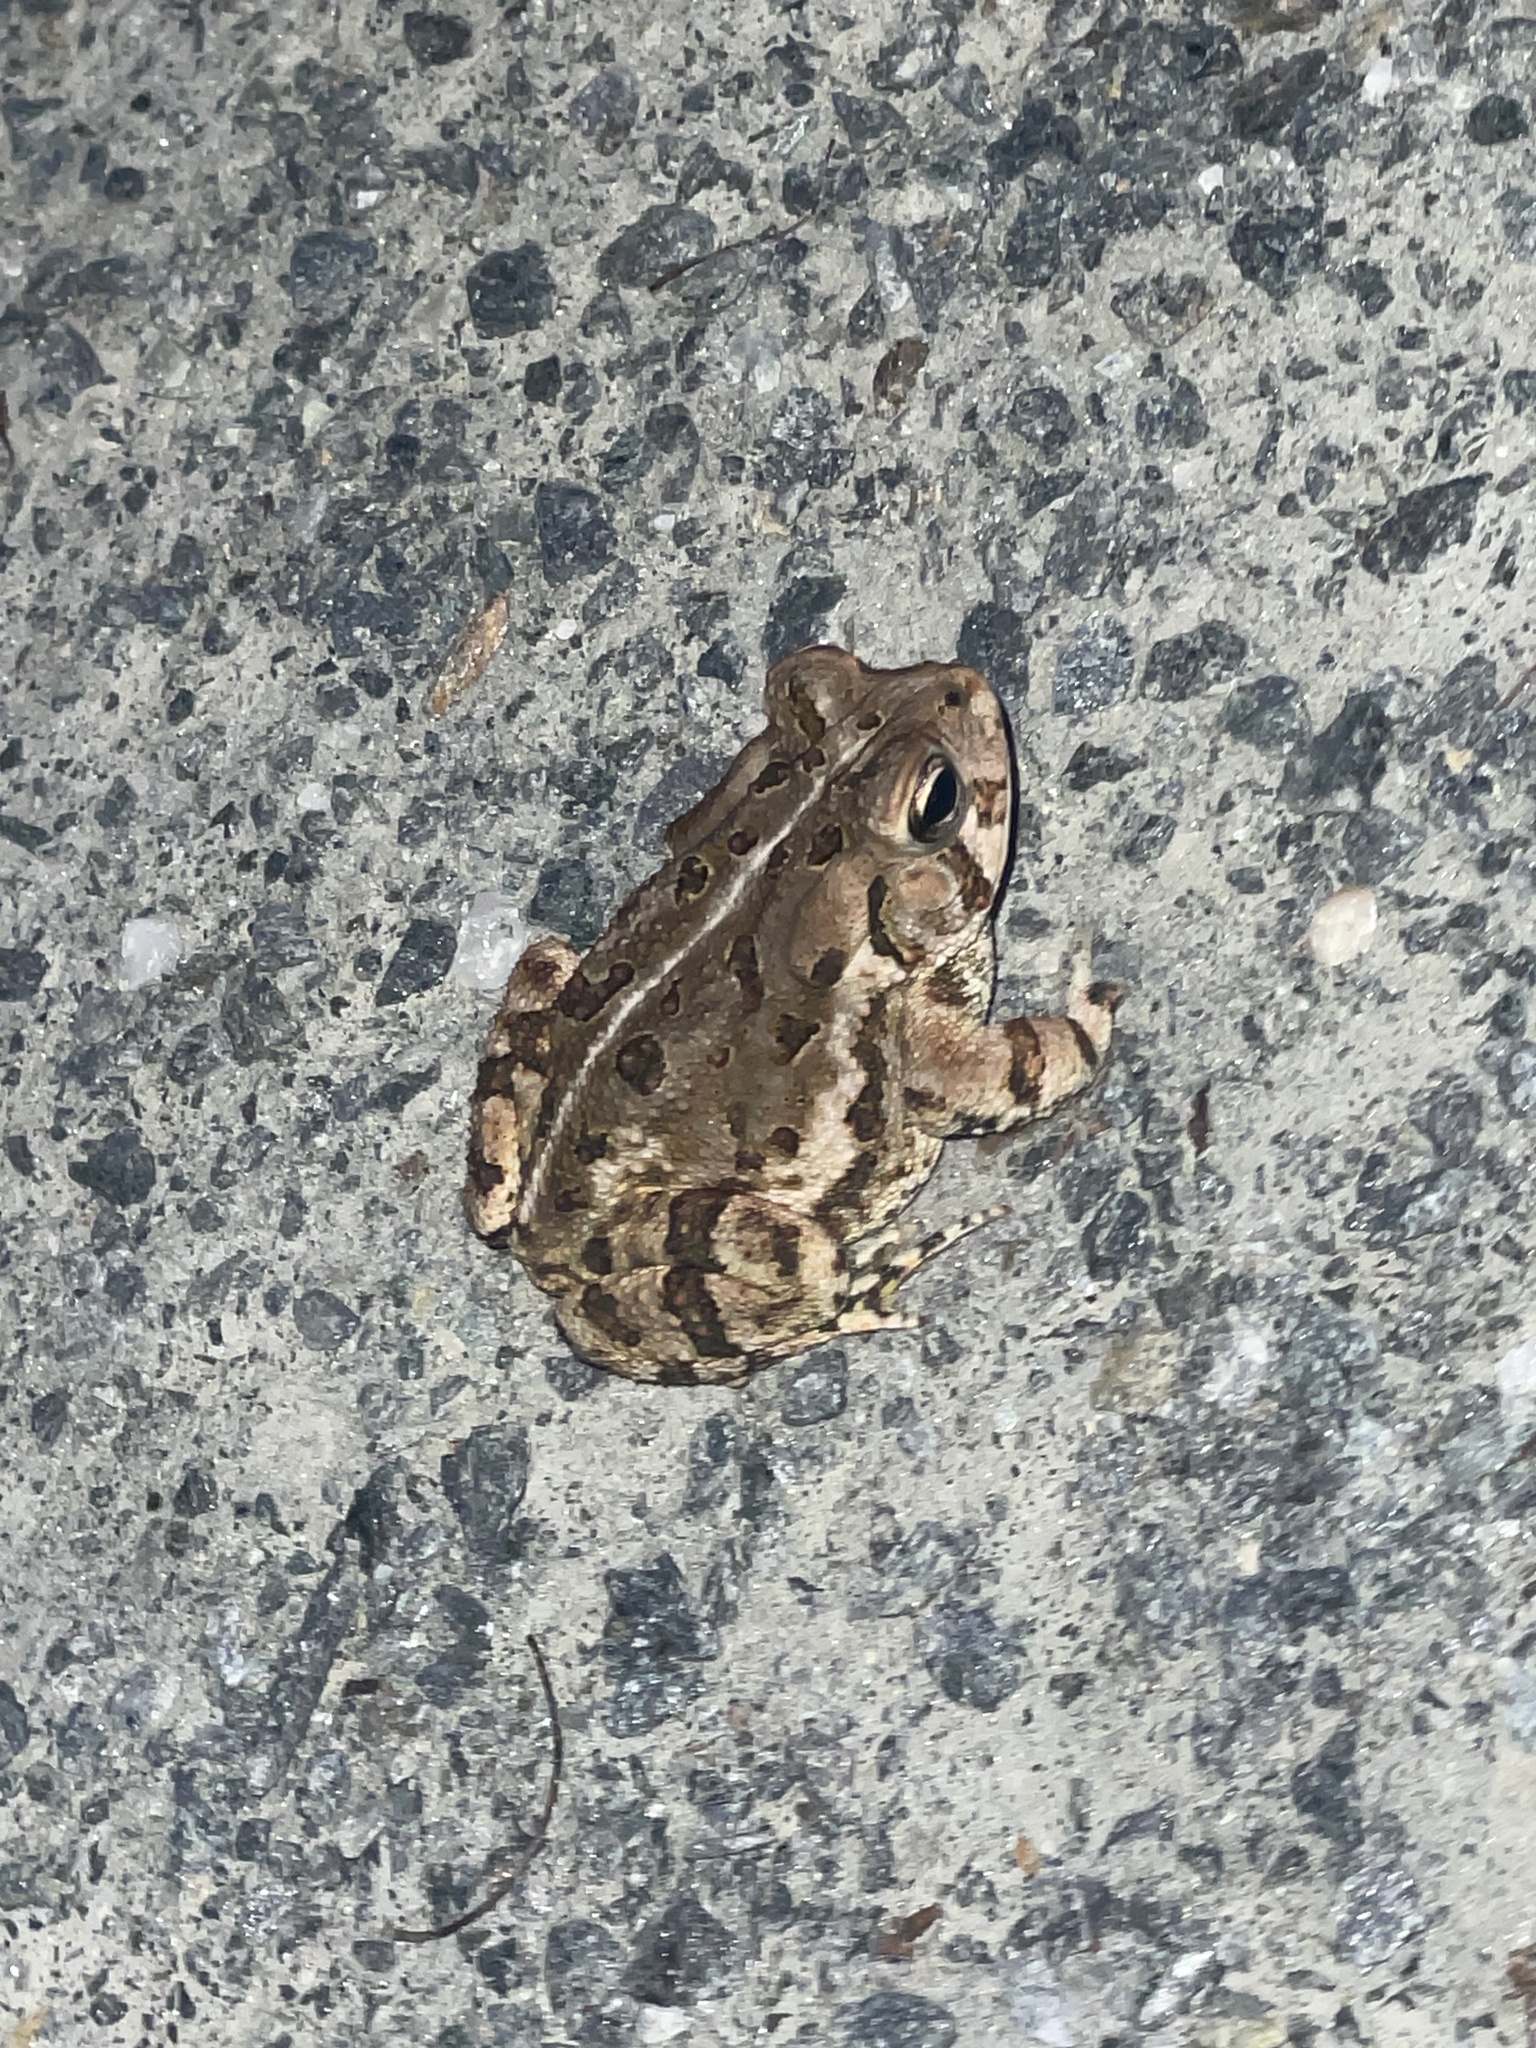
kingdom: Animalia
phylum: Chordata
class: Amphibia
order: Anura
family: Bufonidae
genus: Anaxyrus
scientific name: Anaxyrus fowleri
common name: Fowler's toad
